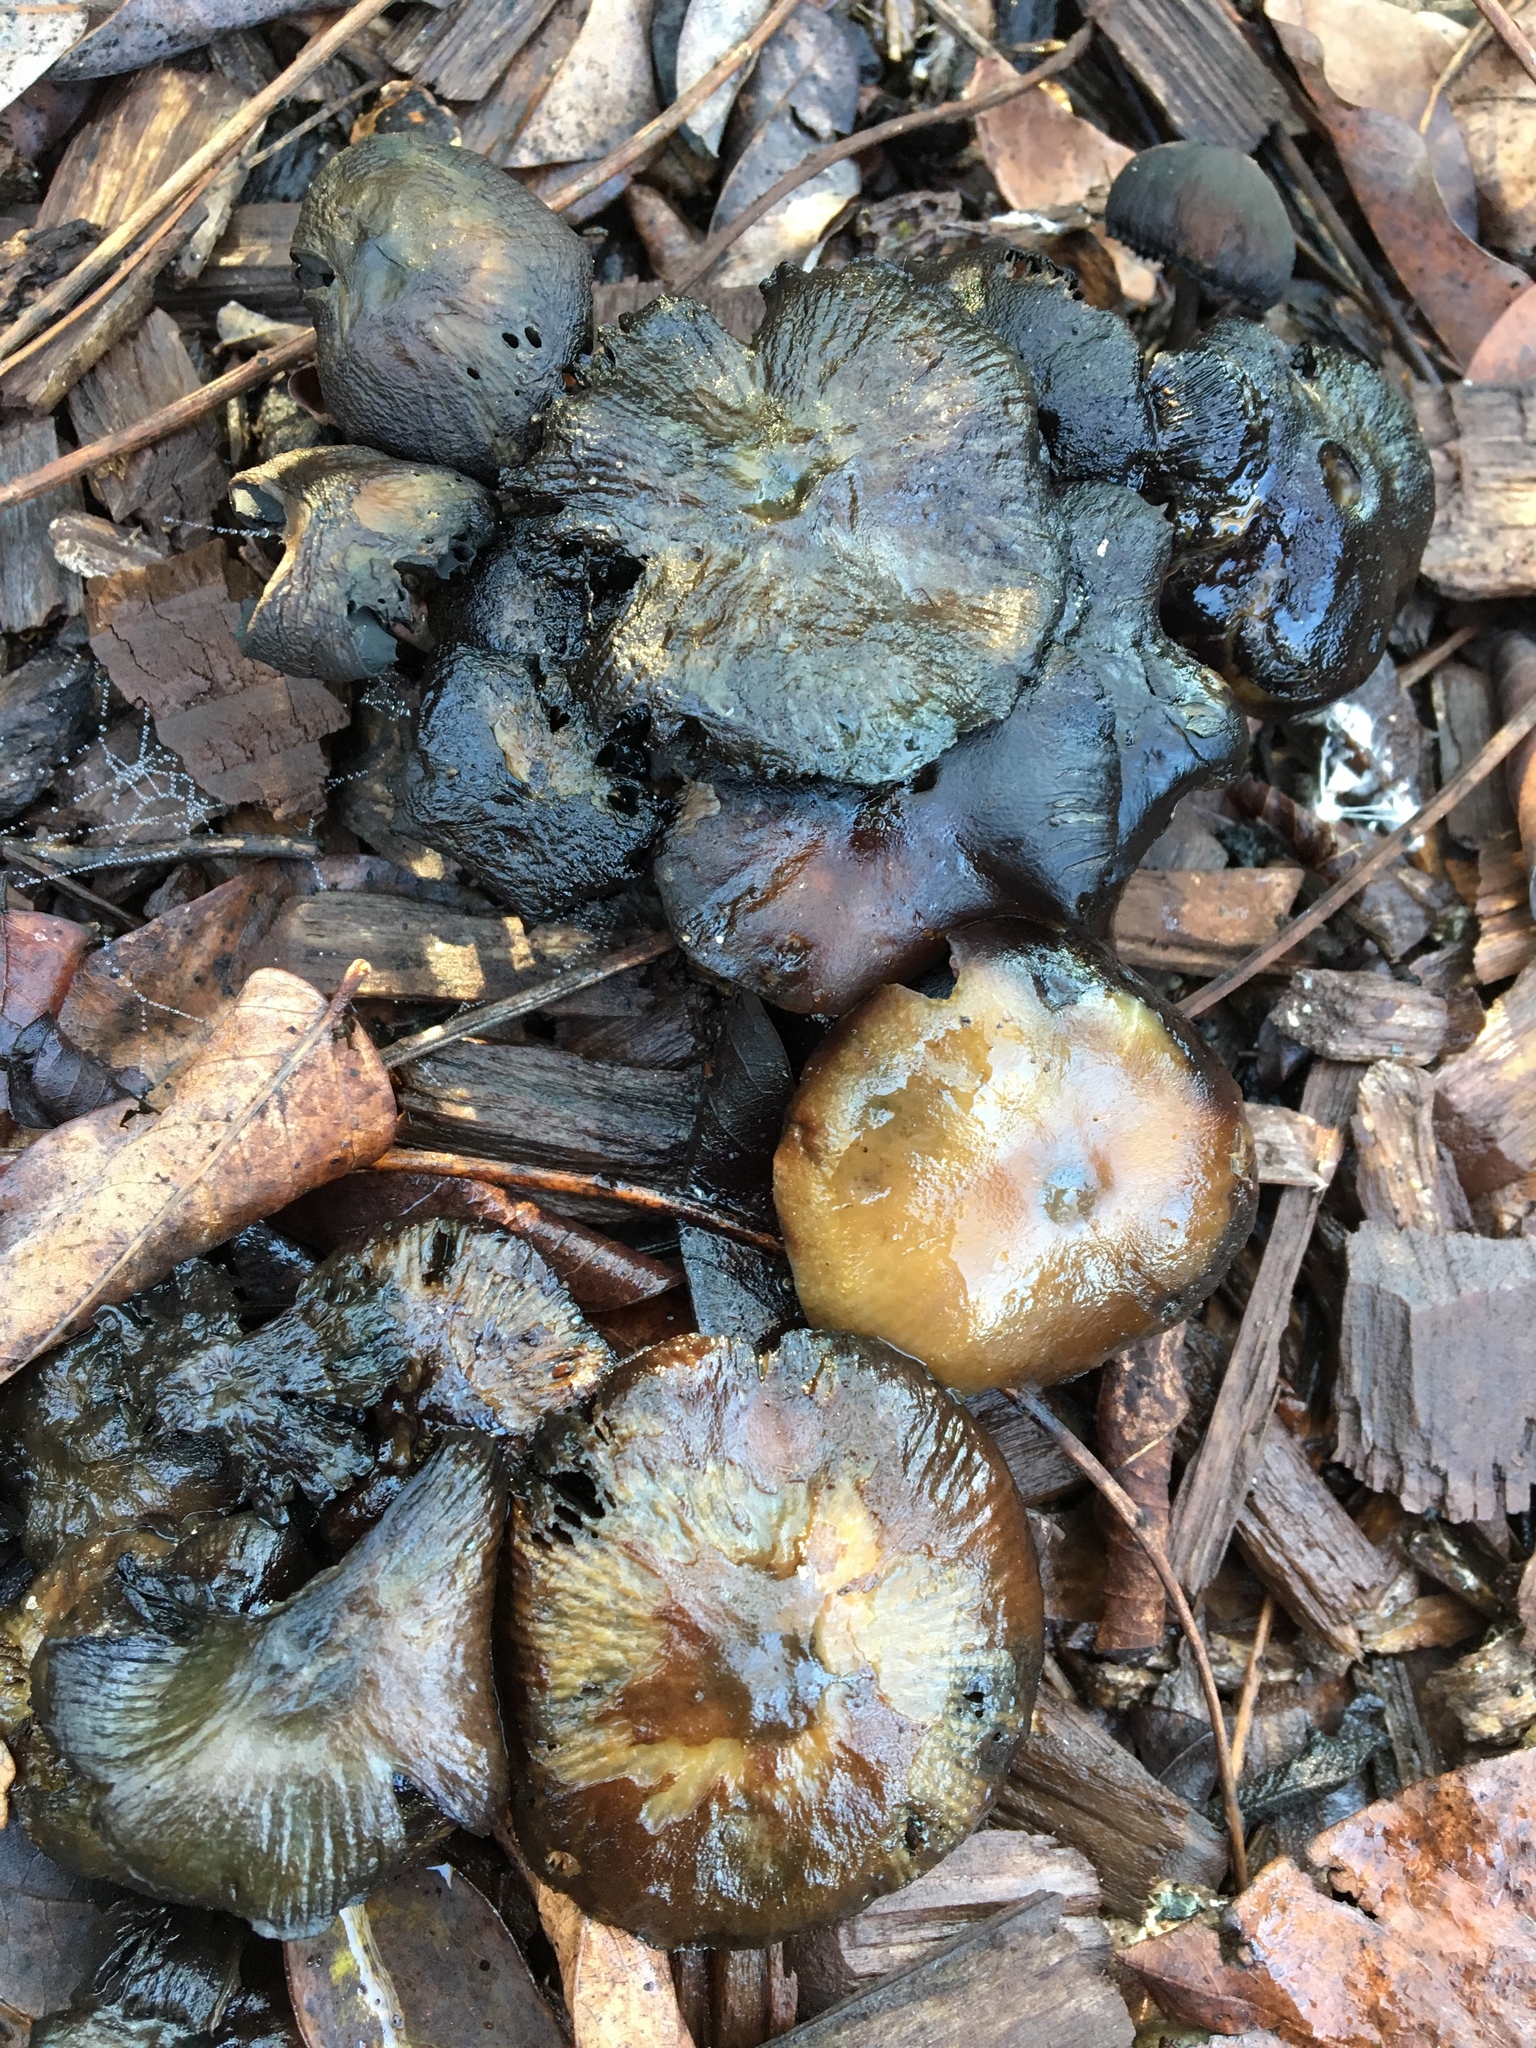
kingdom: Fungi
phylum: Basidiomycota
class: Agaricomycetes
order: Agaricales
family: Hymenogastraceae
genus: Psilocybe
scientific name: Psilocybe allenii
